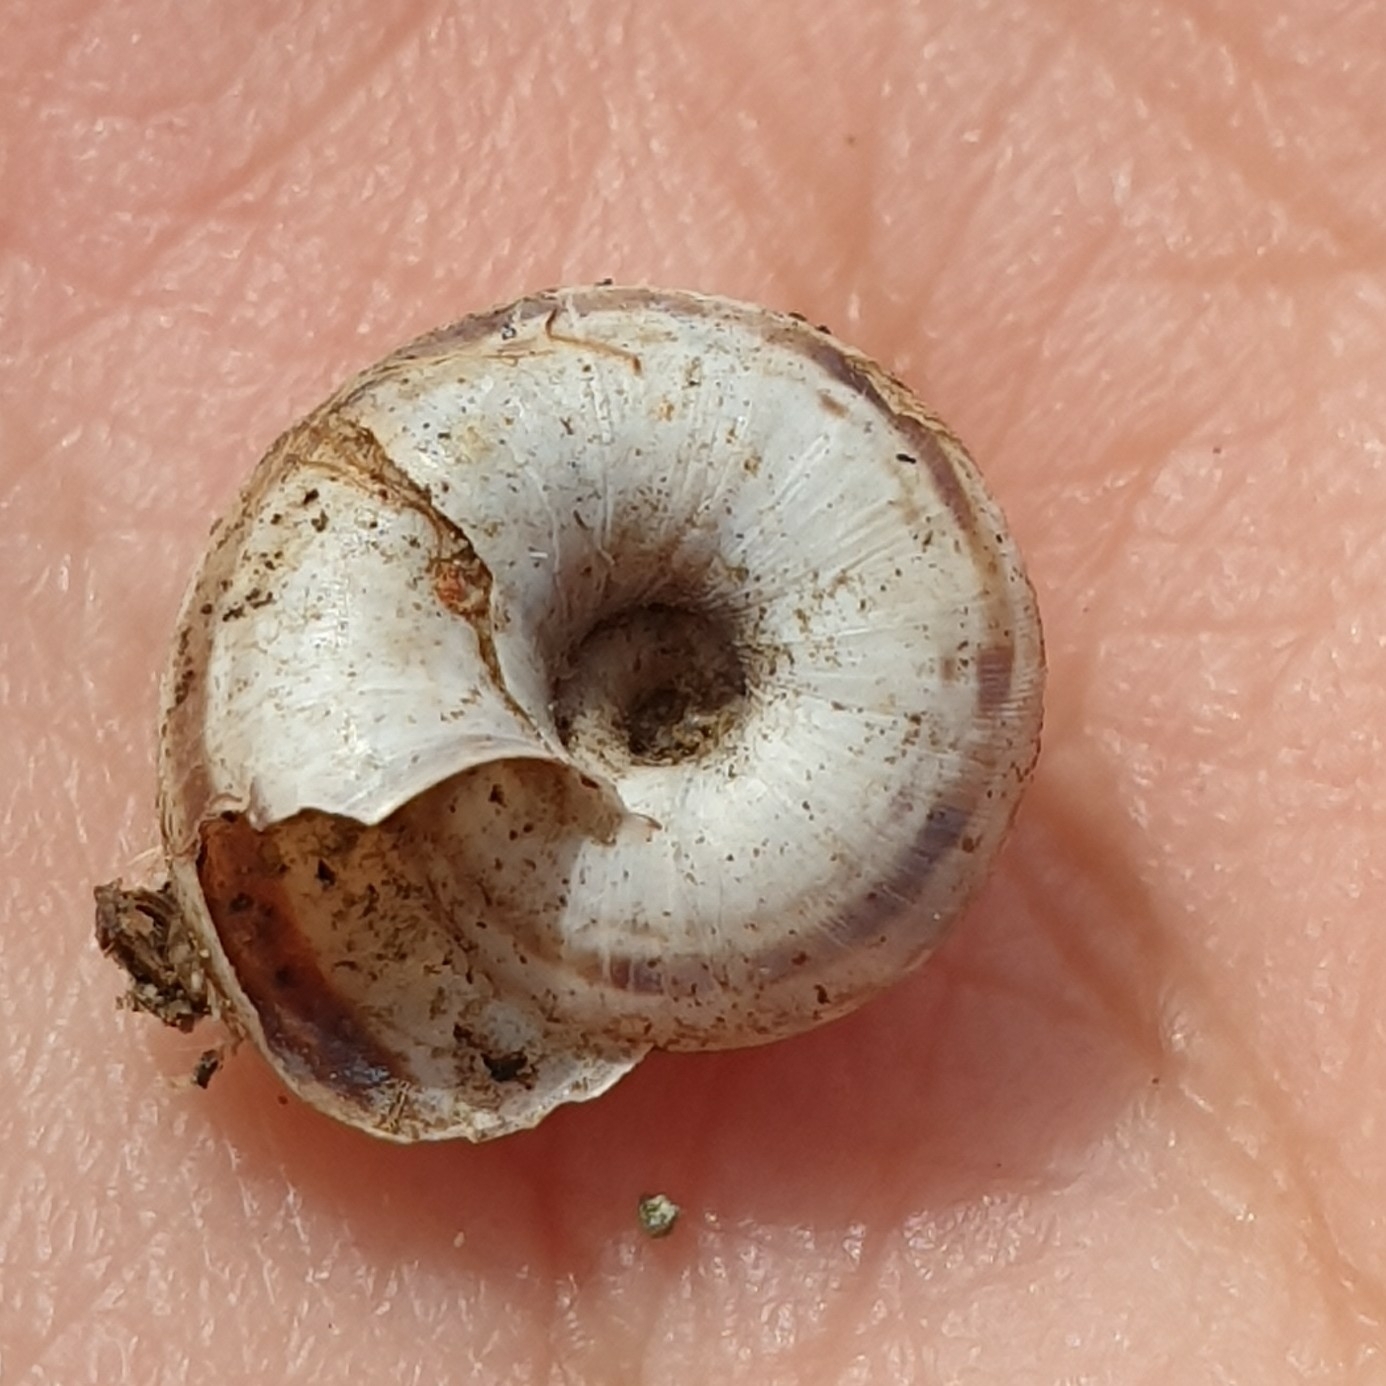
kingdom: Animalia
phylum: Mollusca
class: Gastropoda
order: Stylommatophora
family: Geomitridae
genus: Xerolenta
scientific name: Xerolenta obvia
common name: White heath snail
